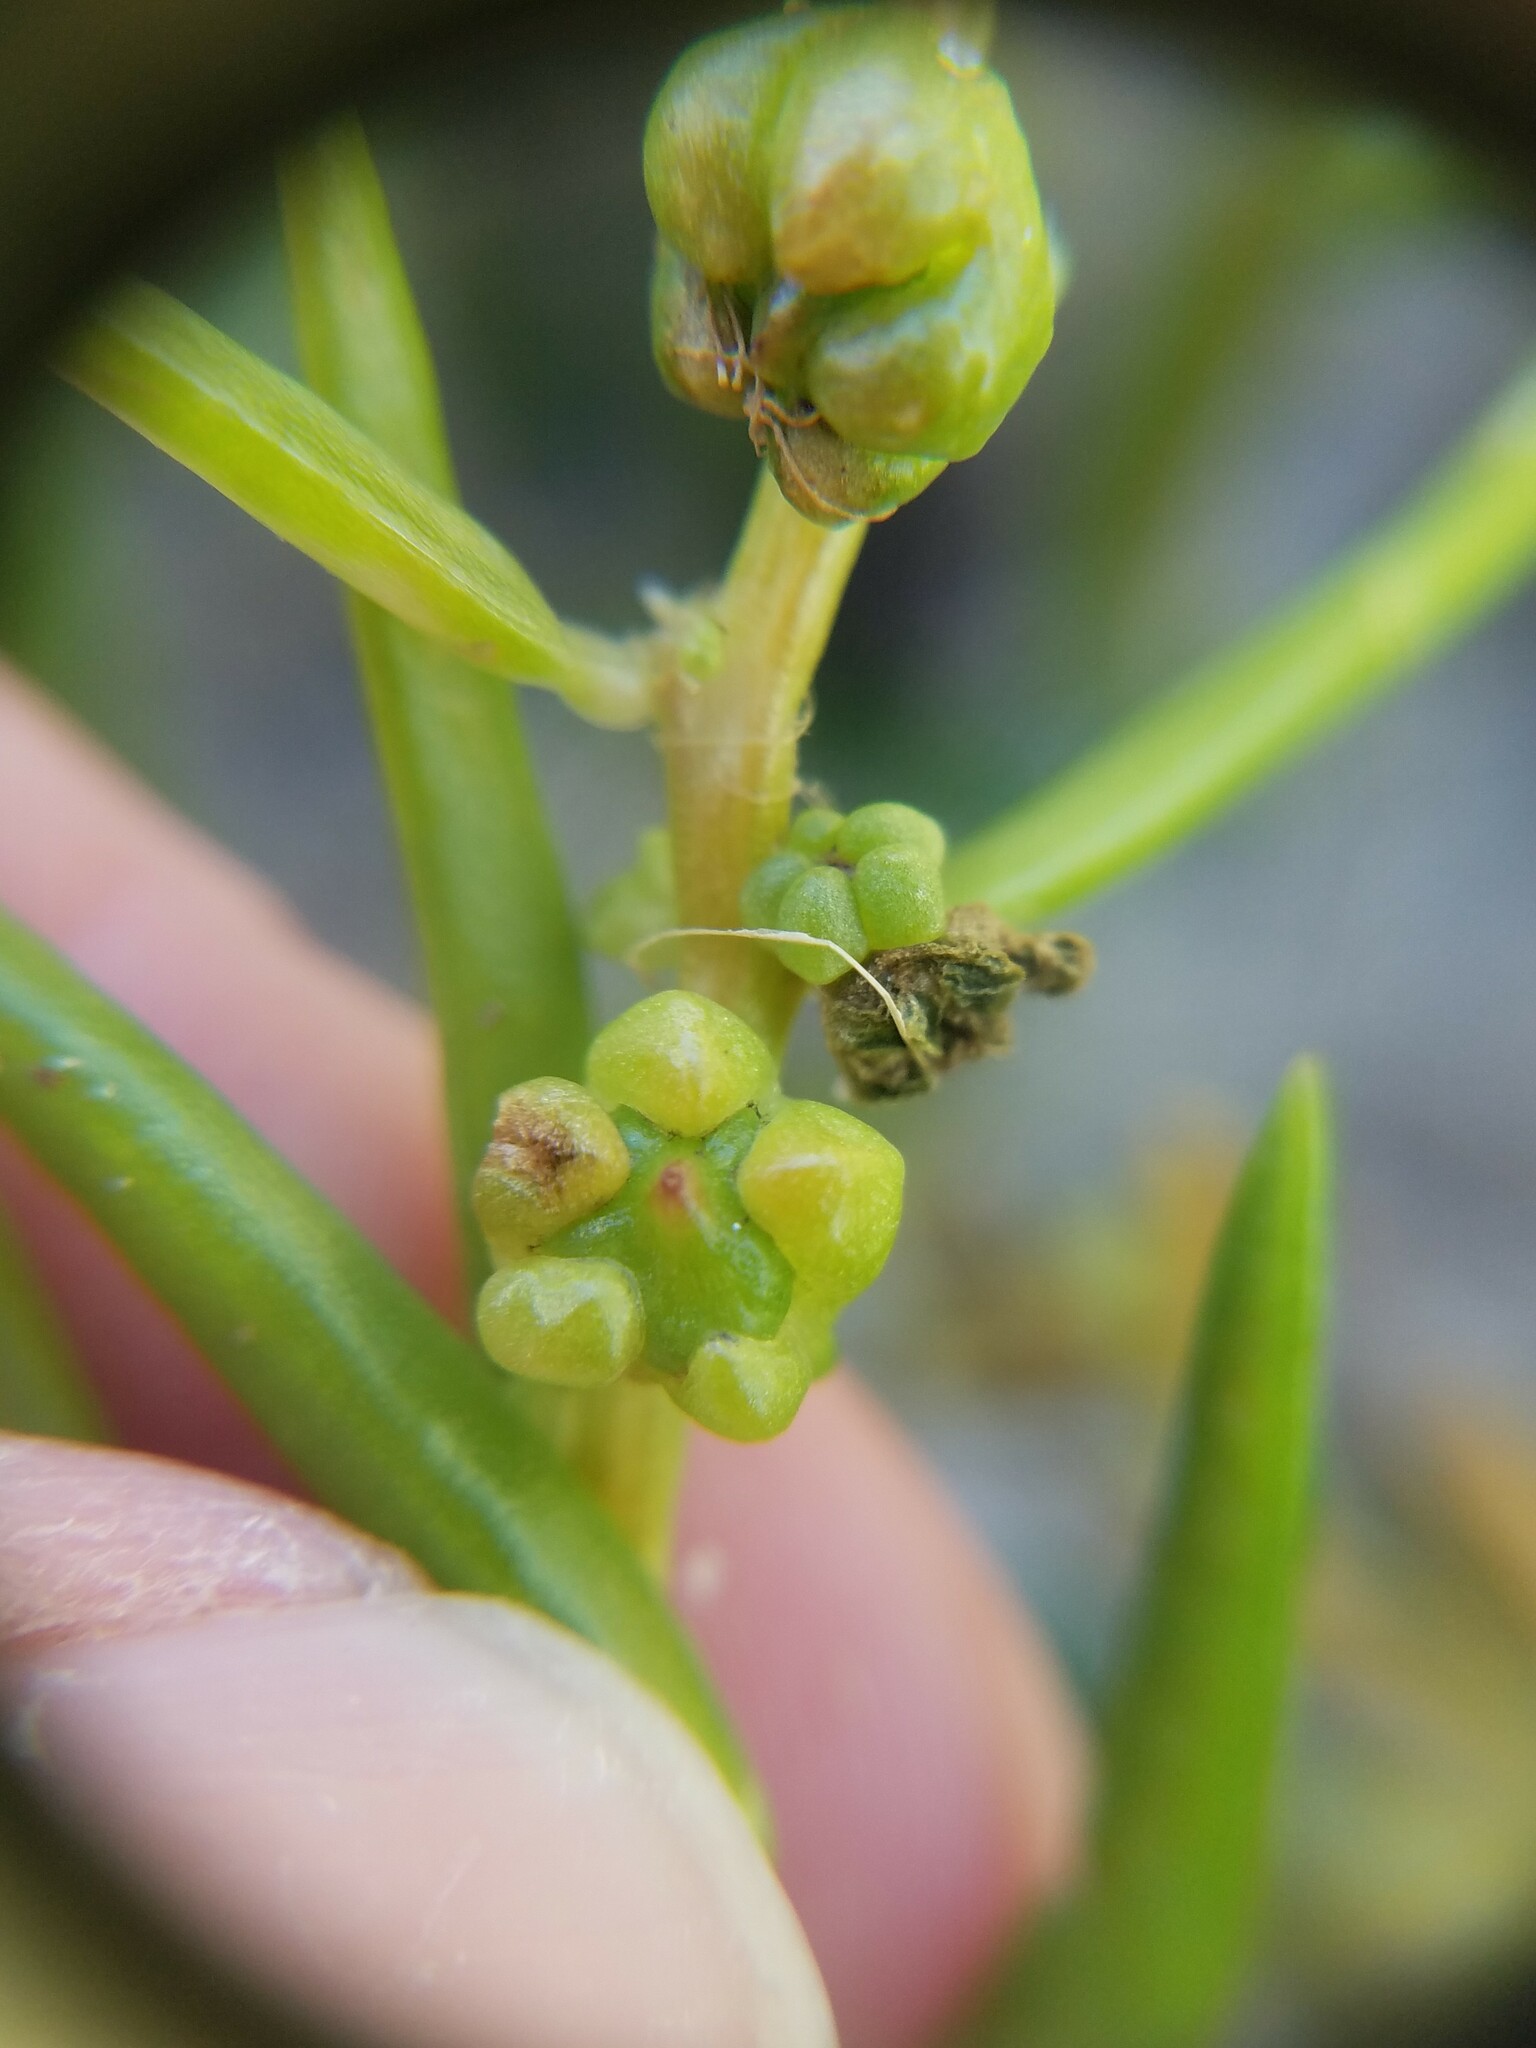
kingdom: Plantae
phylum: Tracheophyta
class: Magnoliopsida
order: Caryophyllales
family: Amaranthaceae
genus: Suaeda
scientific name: Suaeda linearis
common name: Annual seepweed
